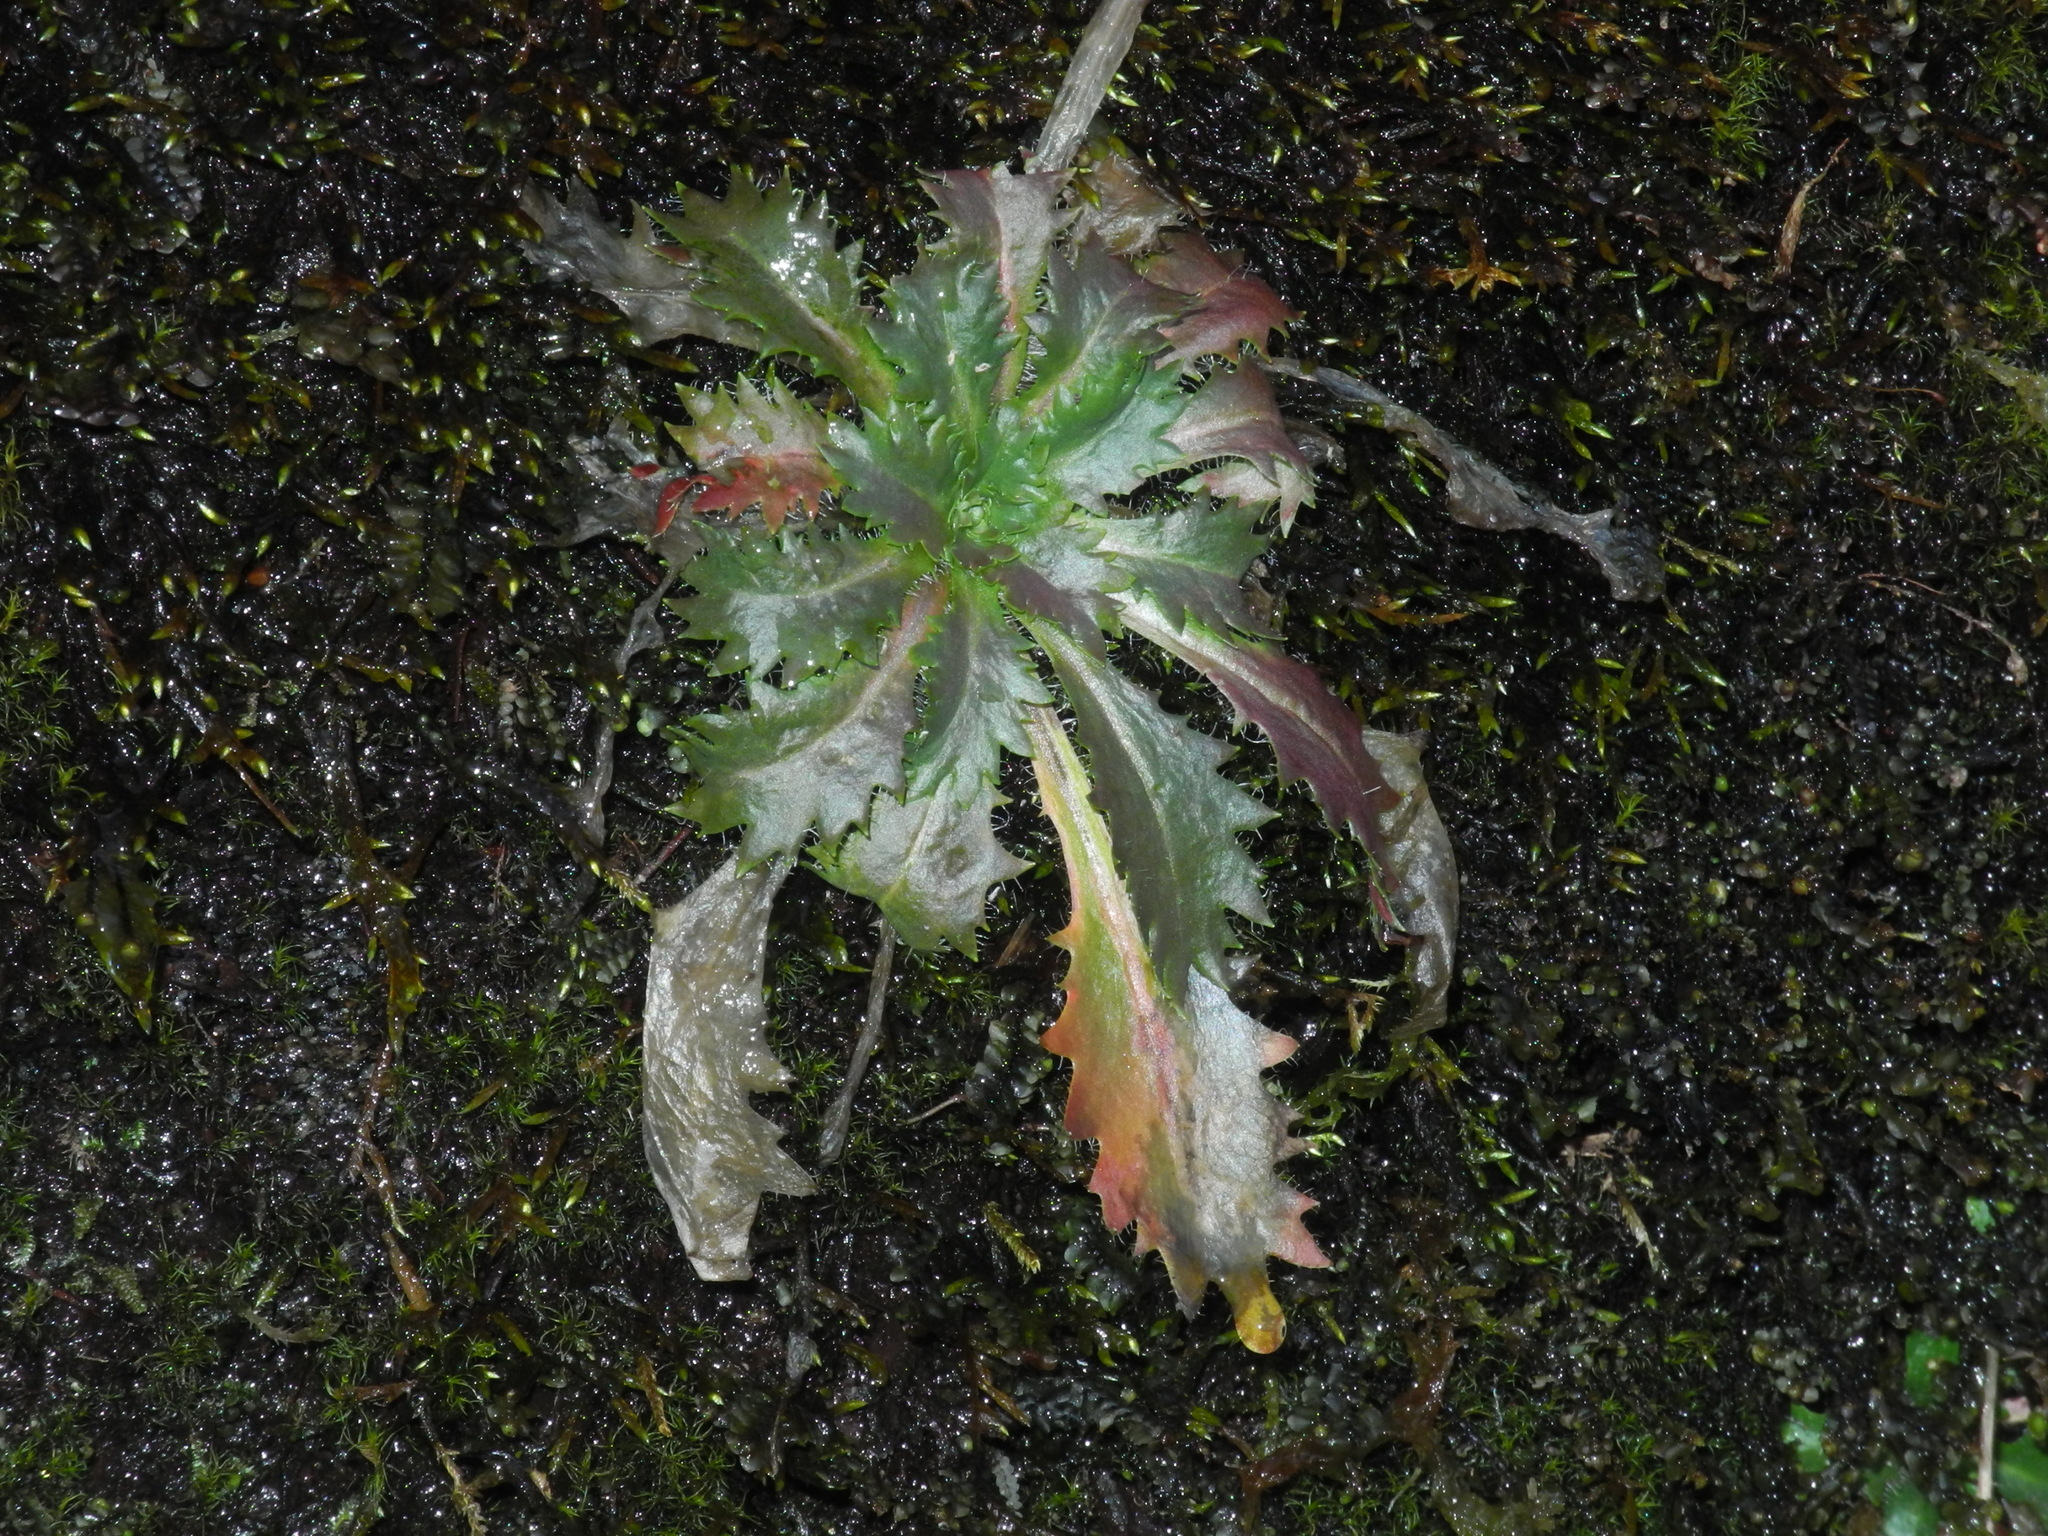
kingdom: Plantae
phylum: Tracheophyta
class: Magnoliopsida
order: Saxifragales
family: Saxifragaceae
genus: Micranthes
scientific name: Micranthes petiolaris
